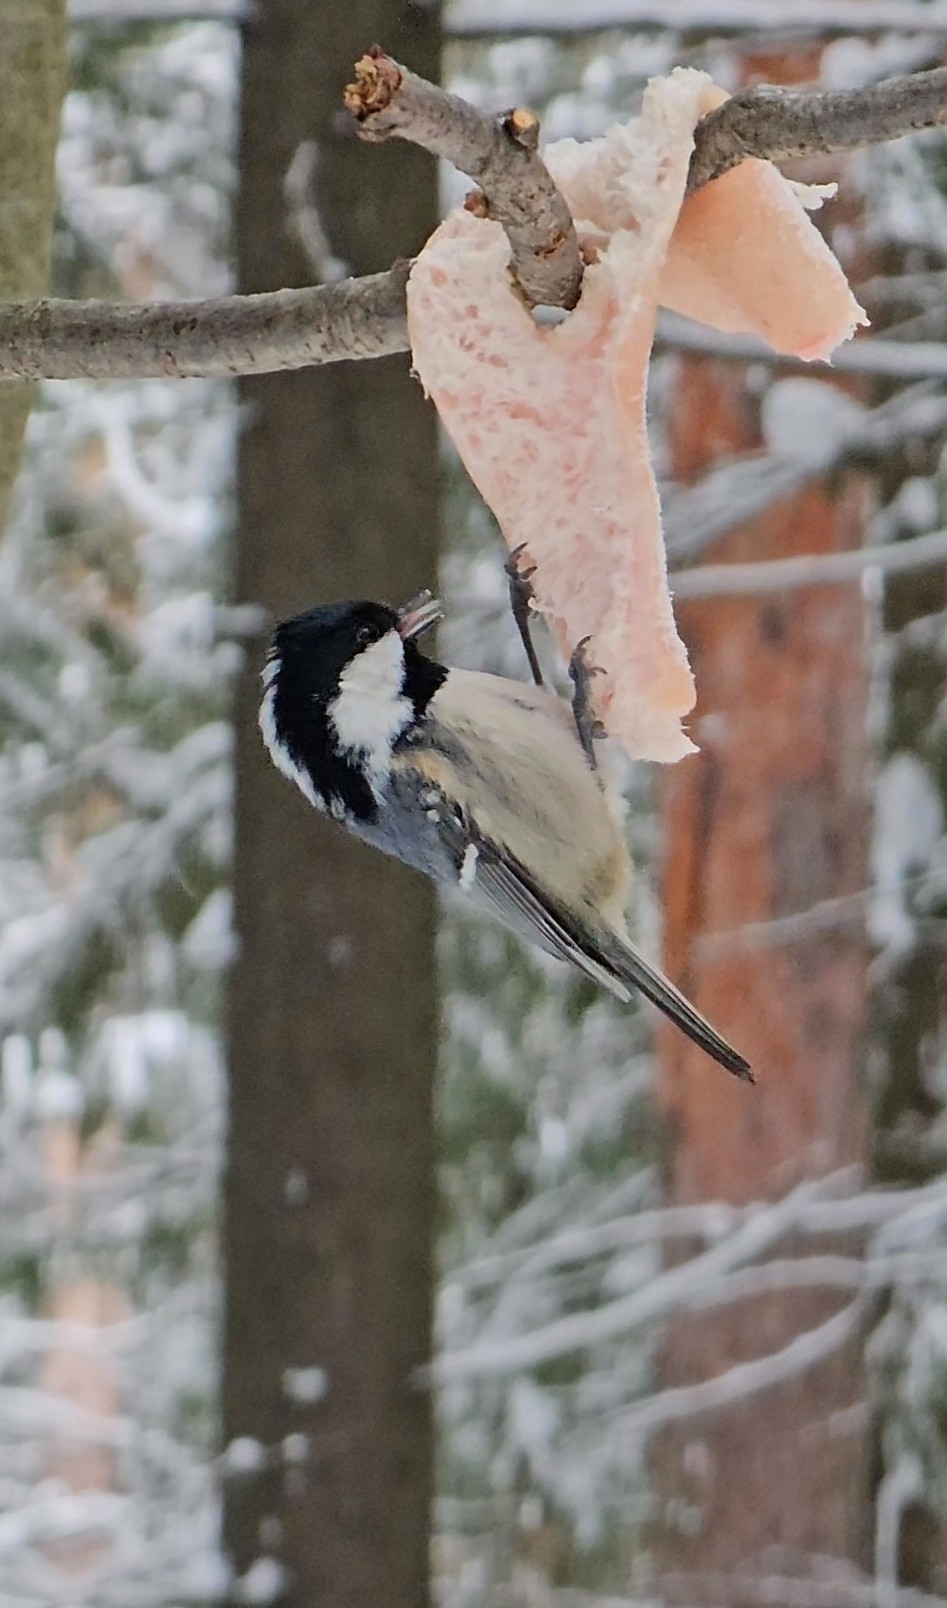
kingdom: Animalia
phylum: Chordata
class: Aves
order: Passeriformes
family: Paridae
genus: Periparus
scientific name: Periparus ater
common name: Coal tit
